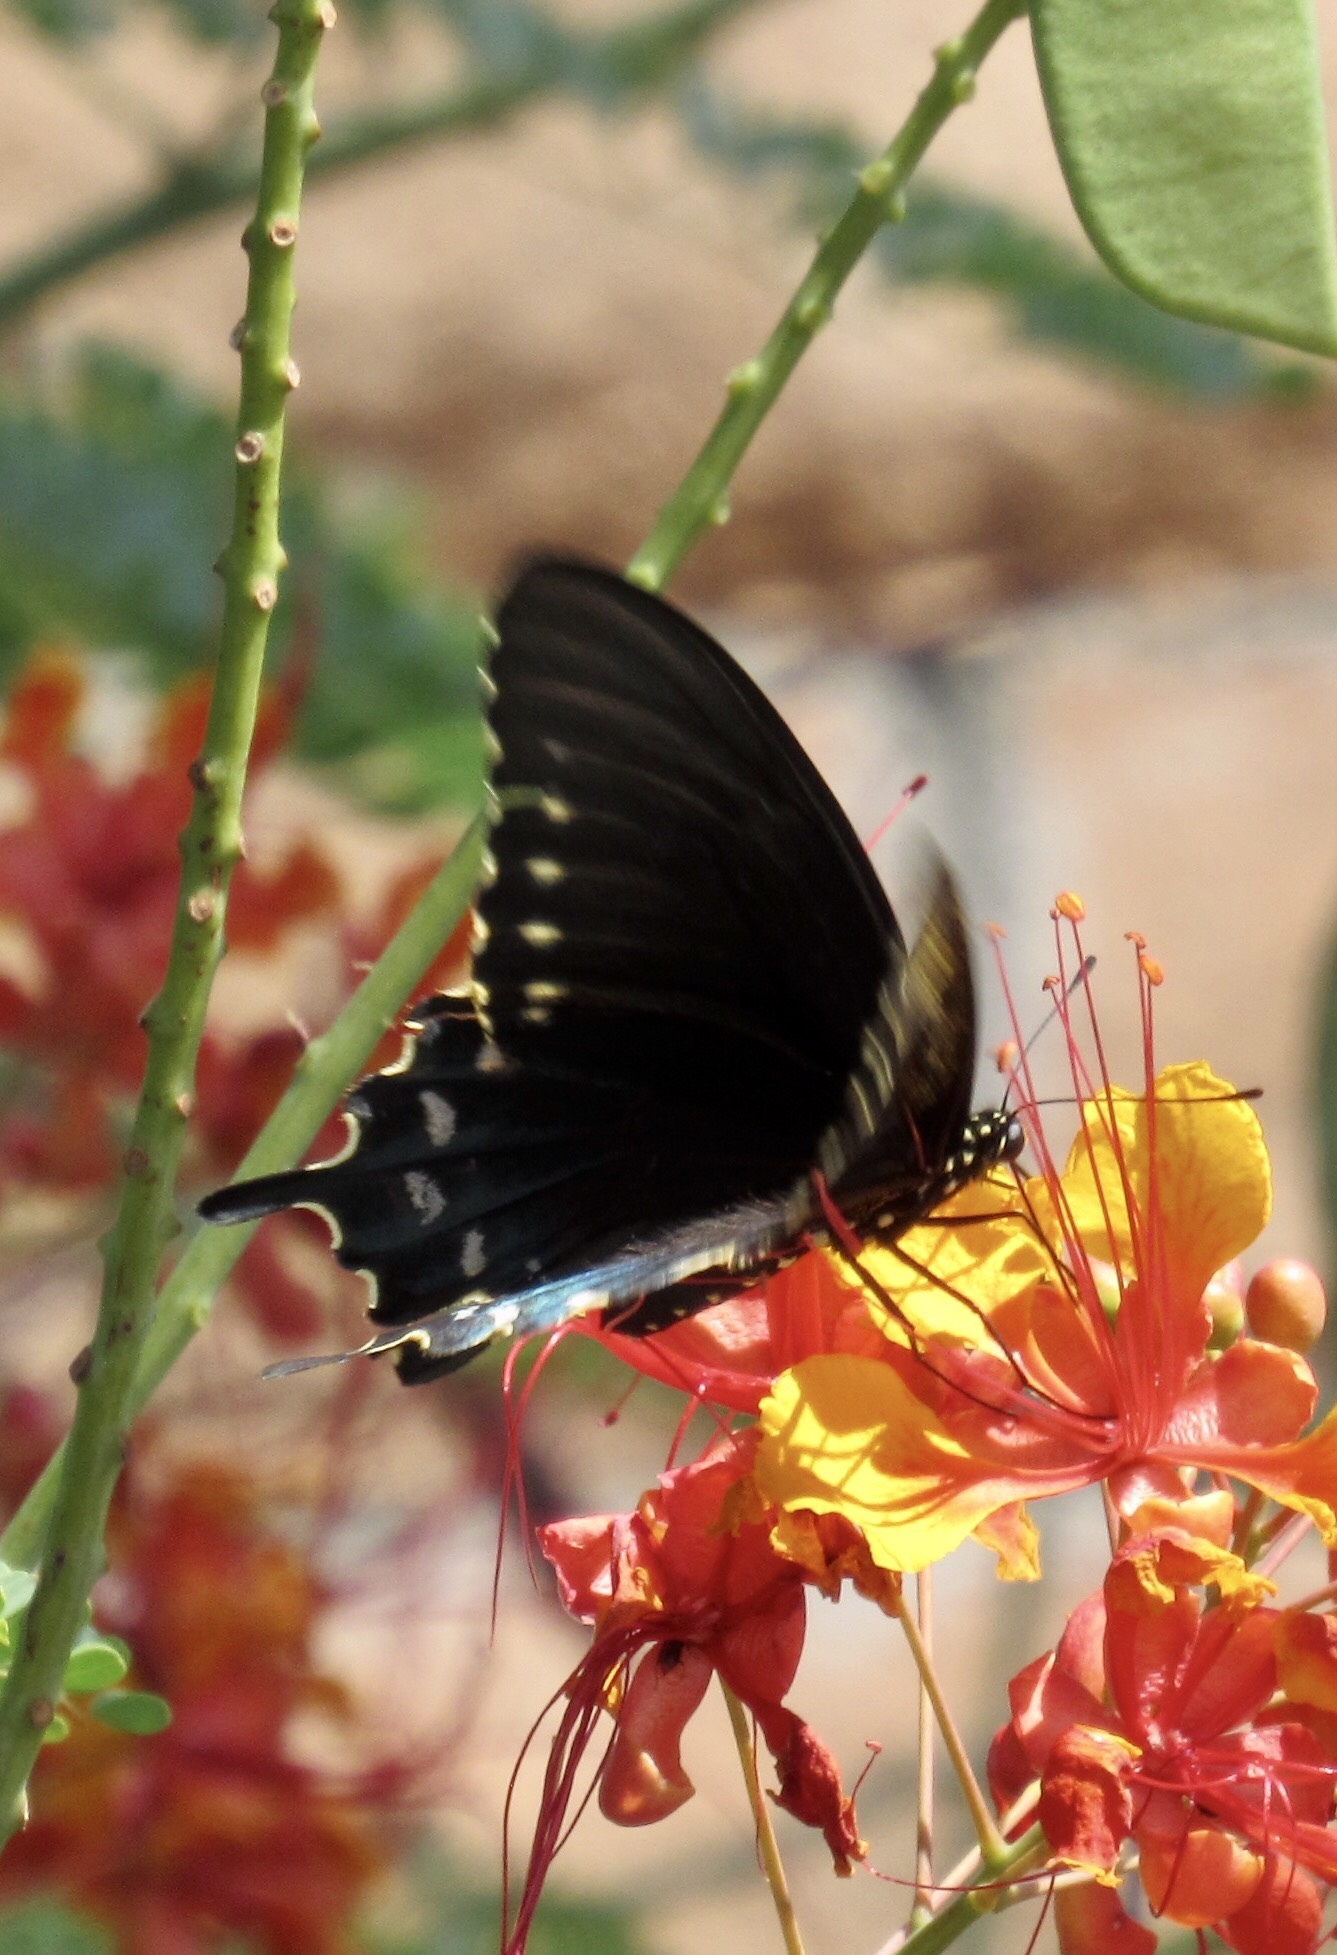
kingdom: Animalia
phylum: Arthropoda
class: Insecta
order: Lepidoptera
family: Papilionidae
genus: Battus
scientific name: Battus philenor
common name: Pipevine swallowtail
